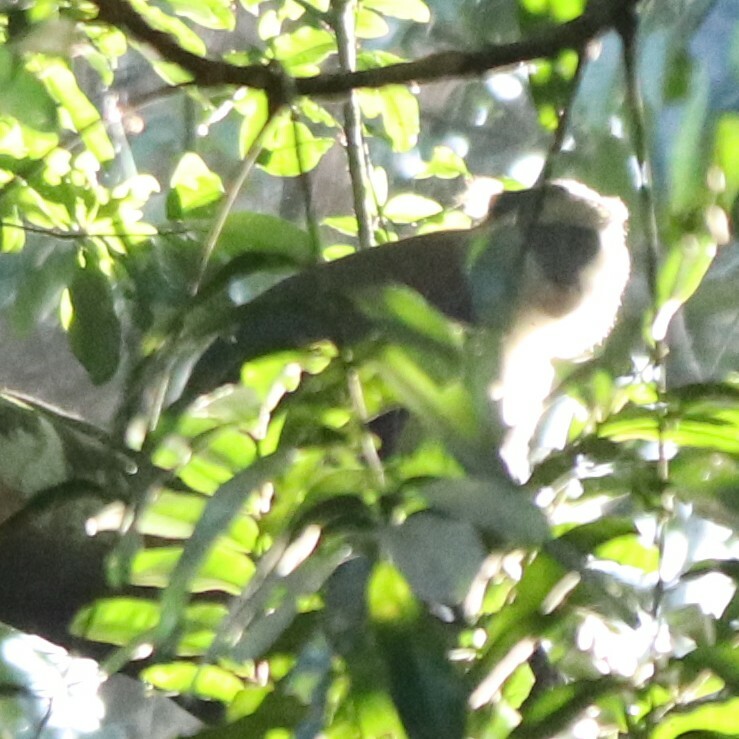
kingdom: Animalia
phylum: Chordata
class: Mammalia
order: Primates
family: Cercopithecidae
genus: Cercopithecus
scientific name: Cercopithecus lowei
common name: Lowe's monkey
